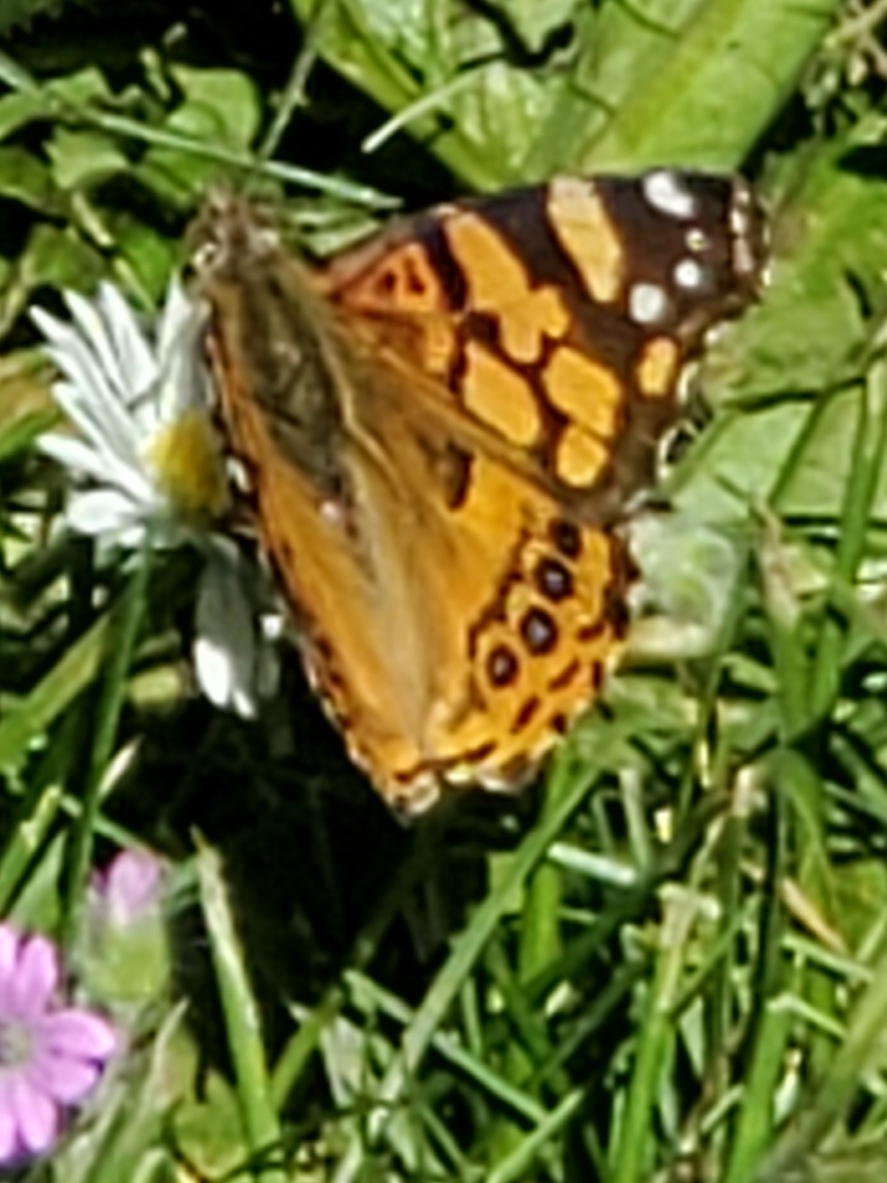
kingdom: Animalia
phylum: Arthropoda
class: Insecta
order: Lepidoptera
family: Nymphalidae
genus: Vanessa
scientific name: Vanessa annabella
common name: West coast lady
